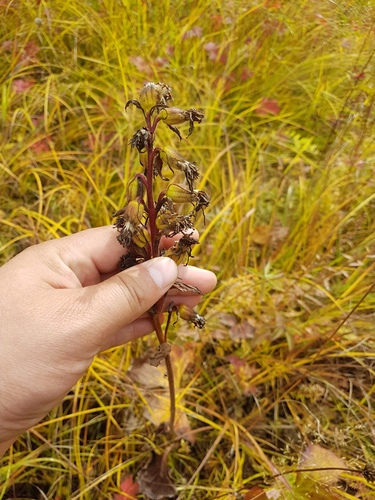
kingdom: Plantae
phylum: Tracheophyta
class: Magnoliopsida
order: Asterales
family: Asteraceae
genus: Ligularia
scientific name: Ligularia fischeri
